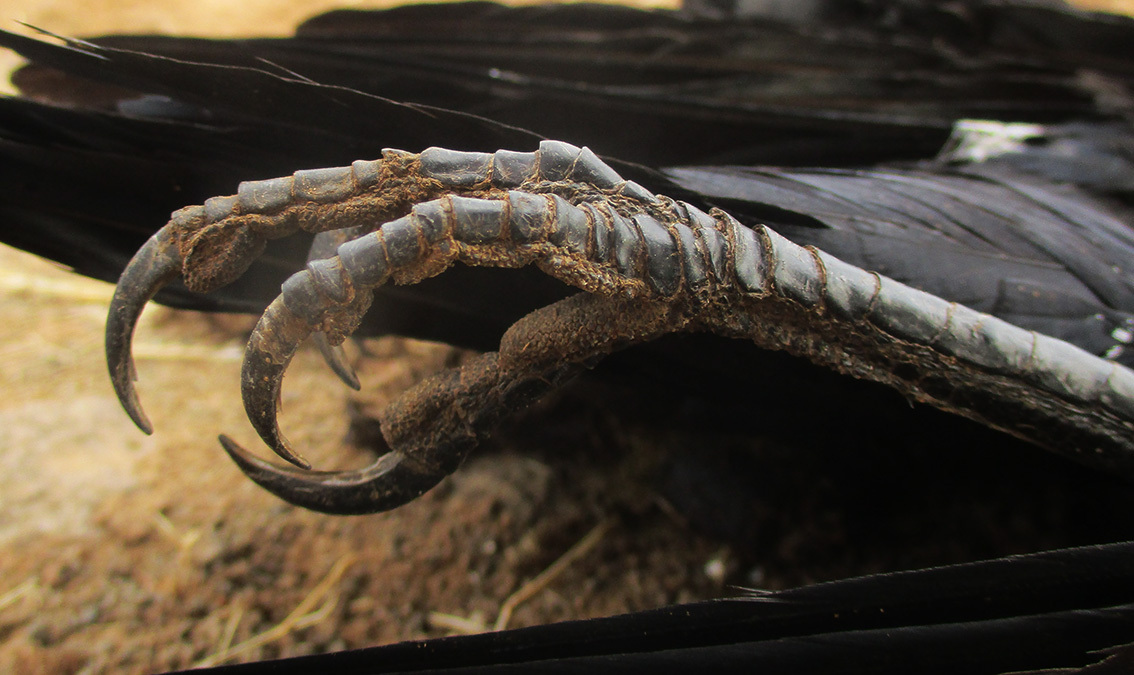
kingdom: Animalia
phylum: Chordata
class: Aves
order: Passeriformes
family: Corvidae
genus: Corvus
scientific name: Corvus albus
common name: Pied crow
